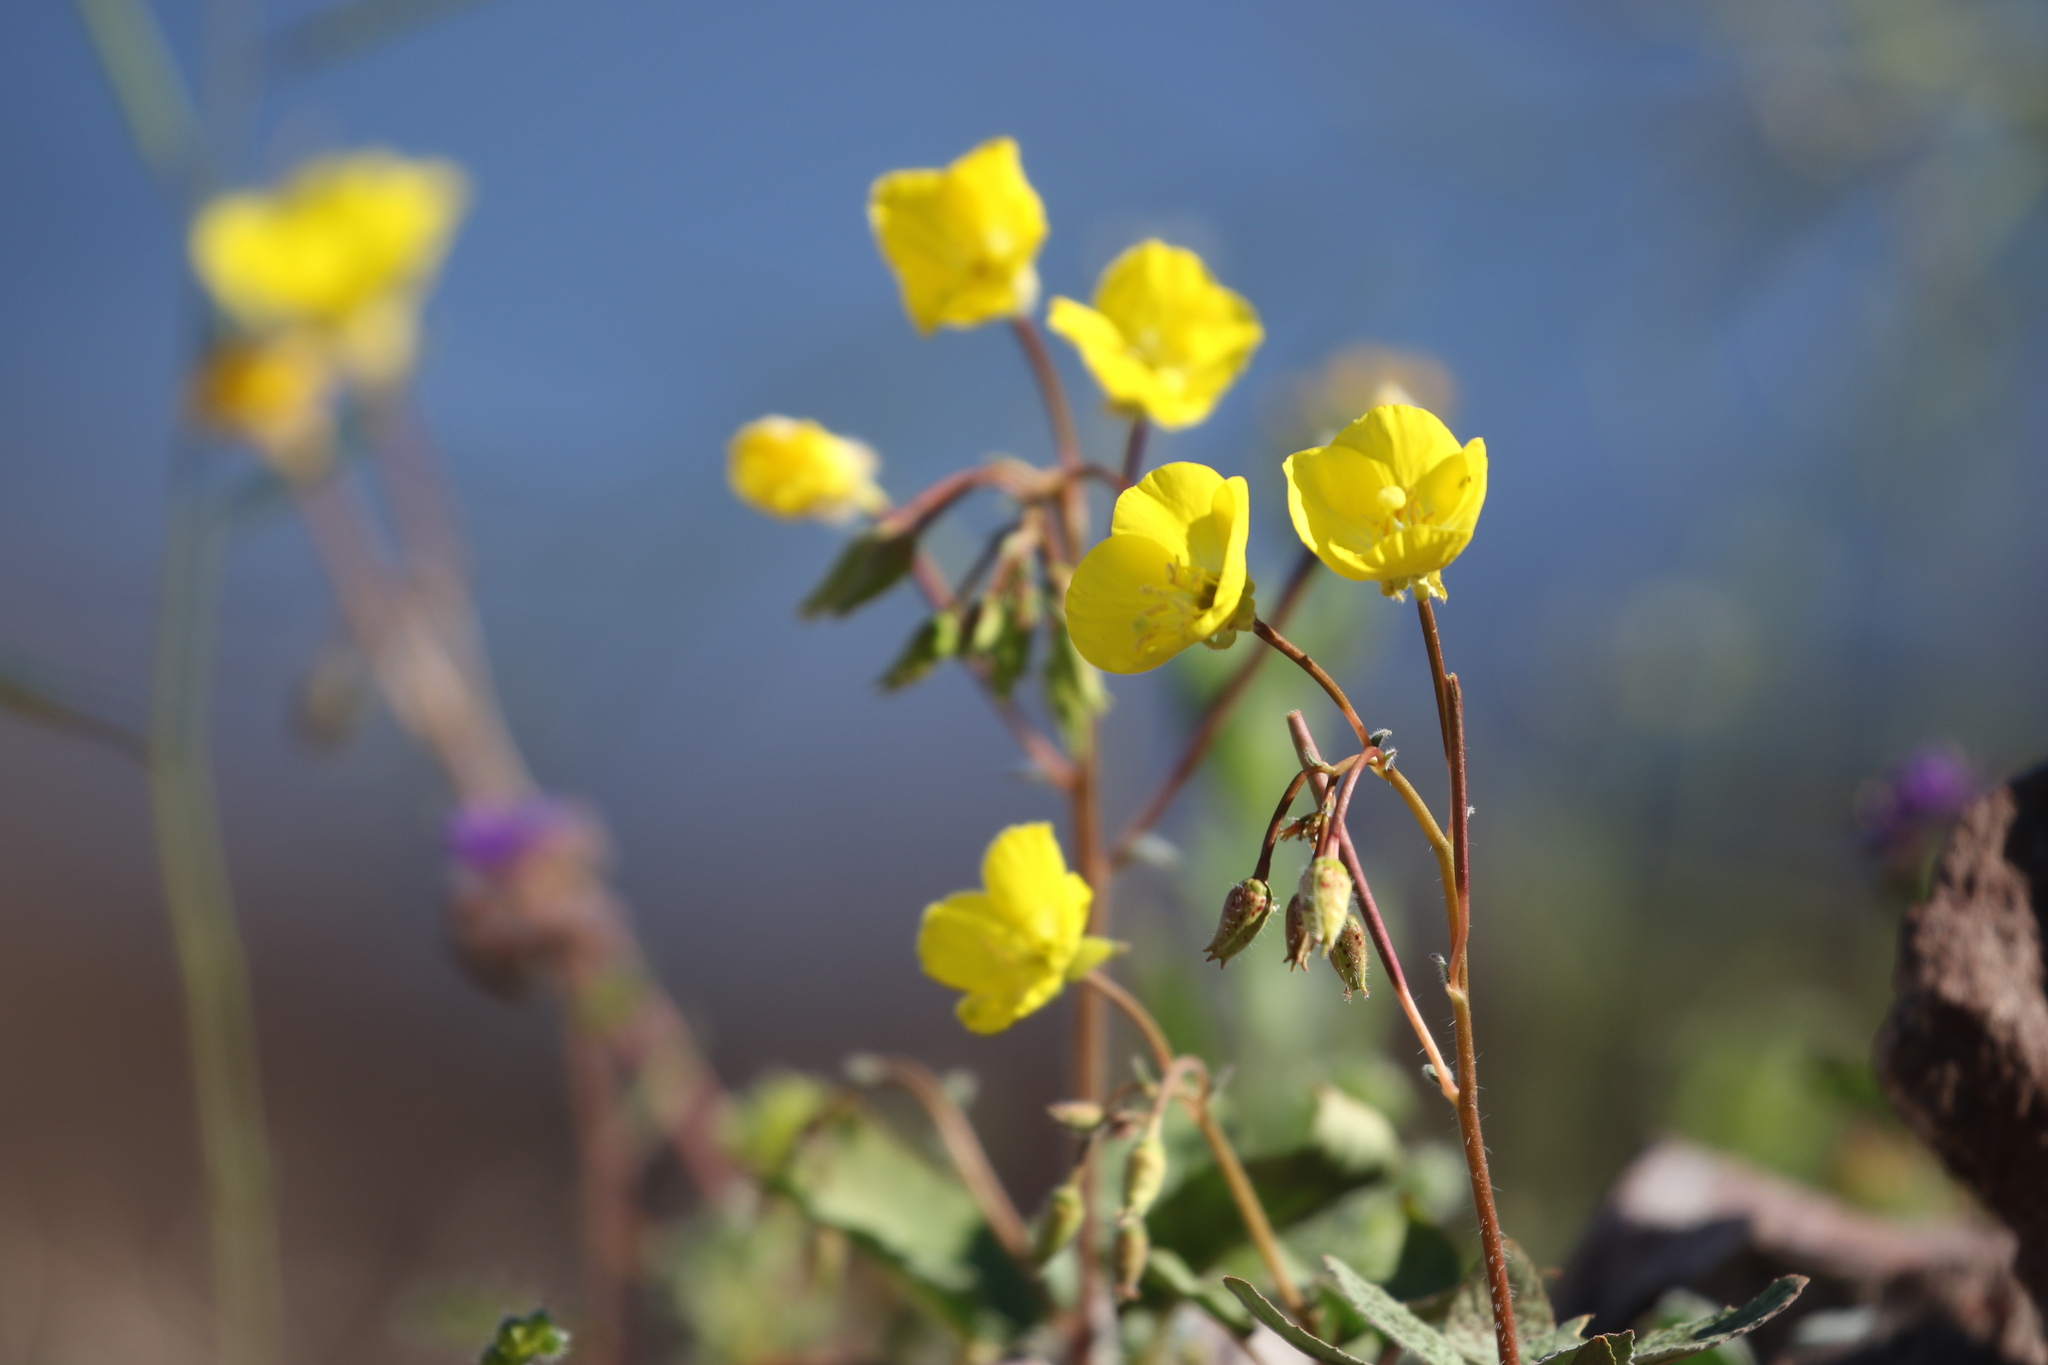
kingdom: Plantae
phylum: Tracheophyta
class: Magnoliopsida
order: Myrtales
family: Onagraceae
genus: Chylismia
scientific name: Chylismia brevipes
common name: Yellow cups
